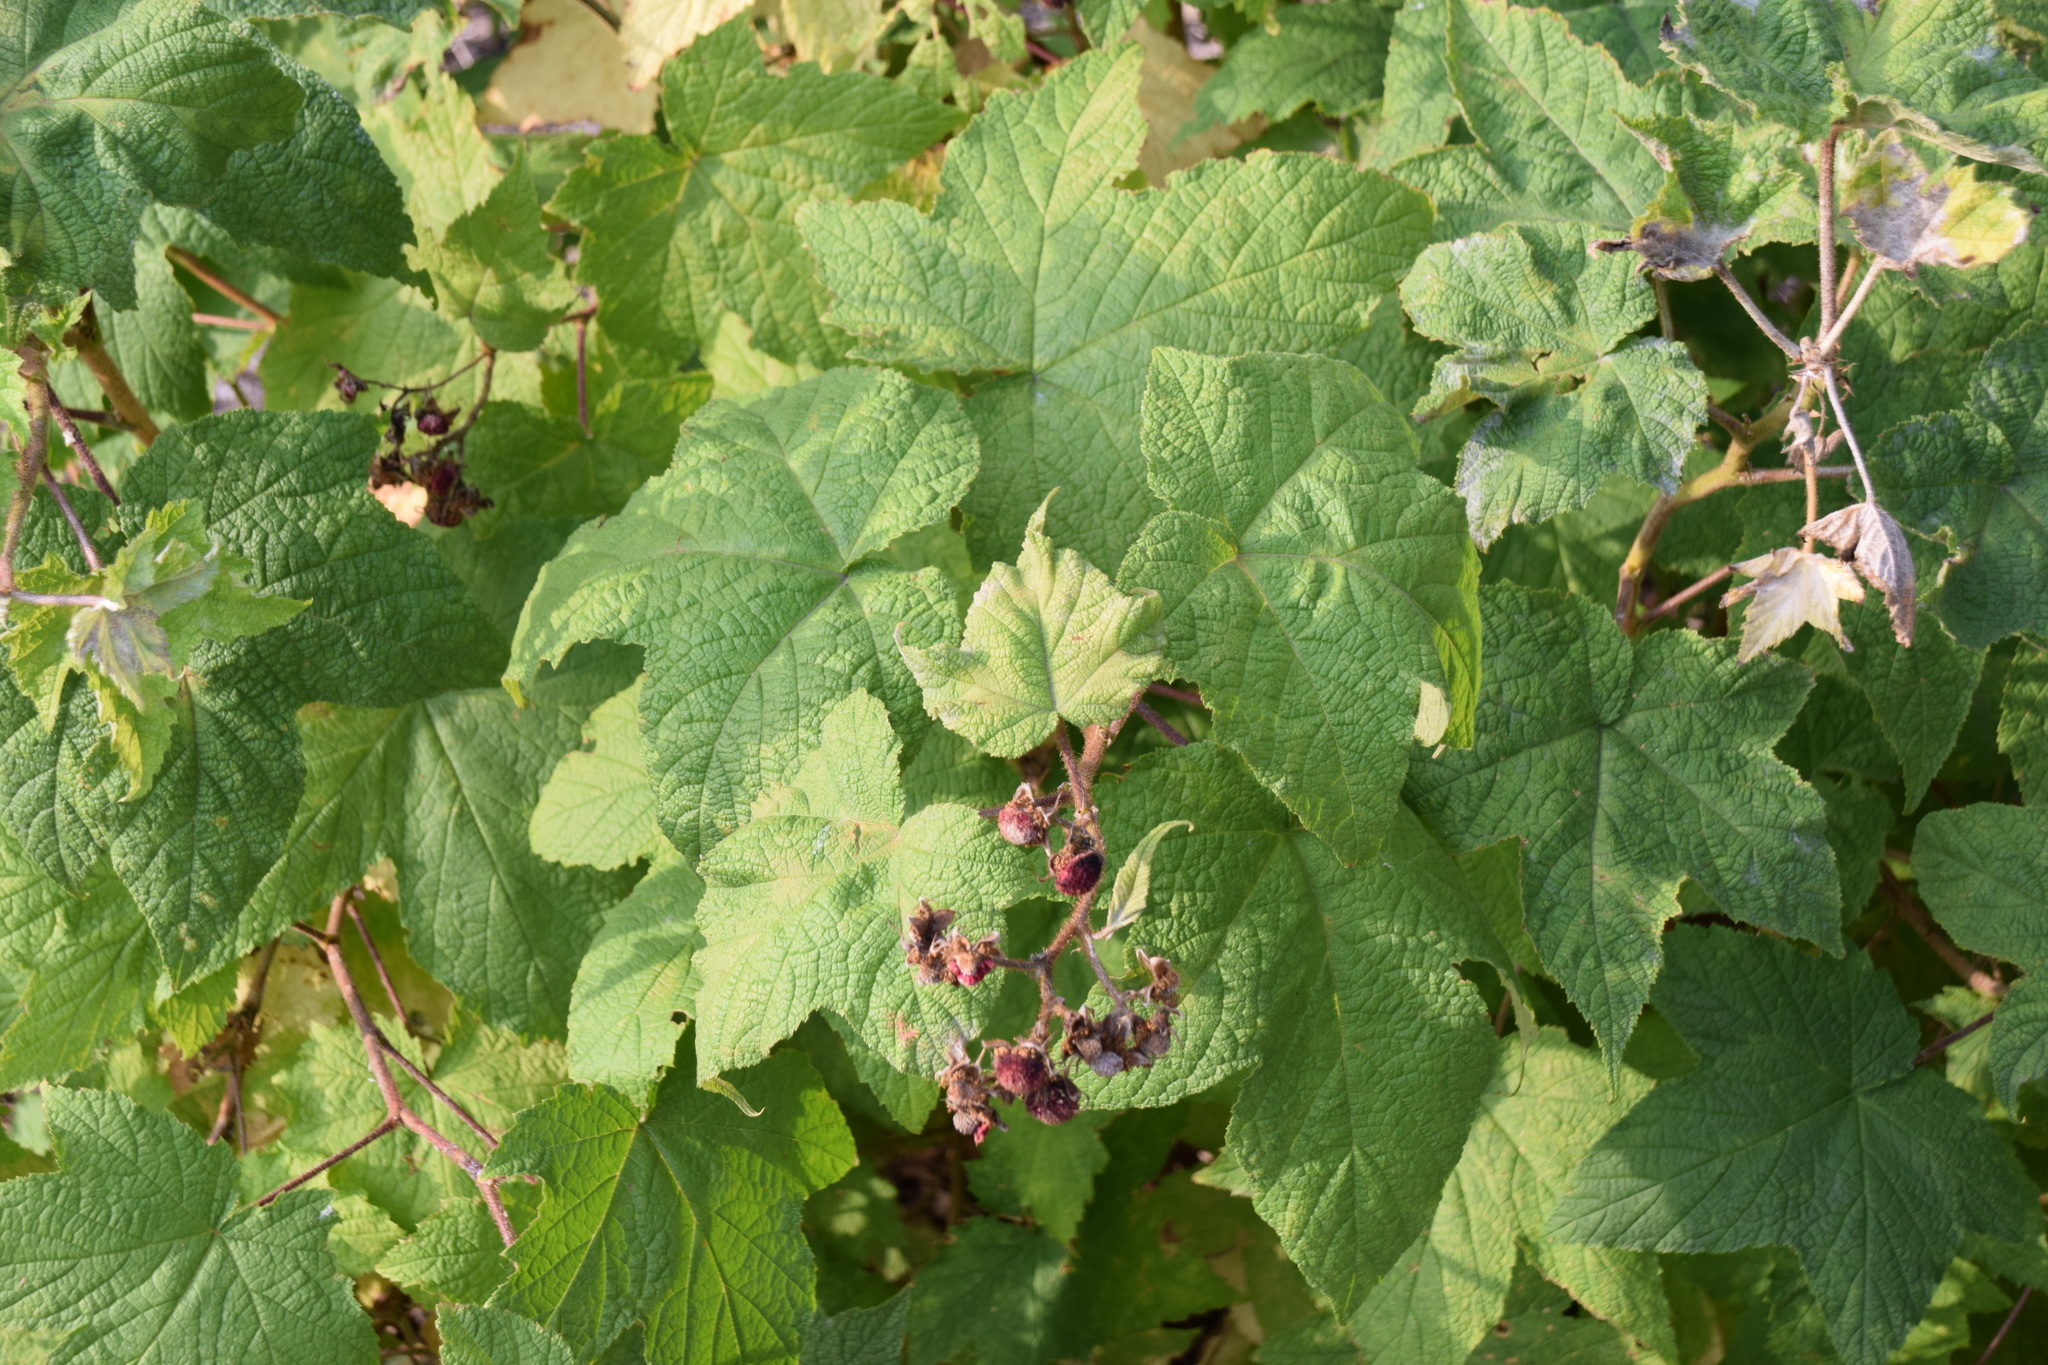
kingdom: Plantae
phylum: Tracheophyta
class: Magnoliopsida
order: Rosales
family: Rosaceae
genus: Rubus
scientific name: Rubus odoratus
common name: Purple-flowered raspberry
